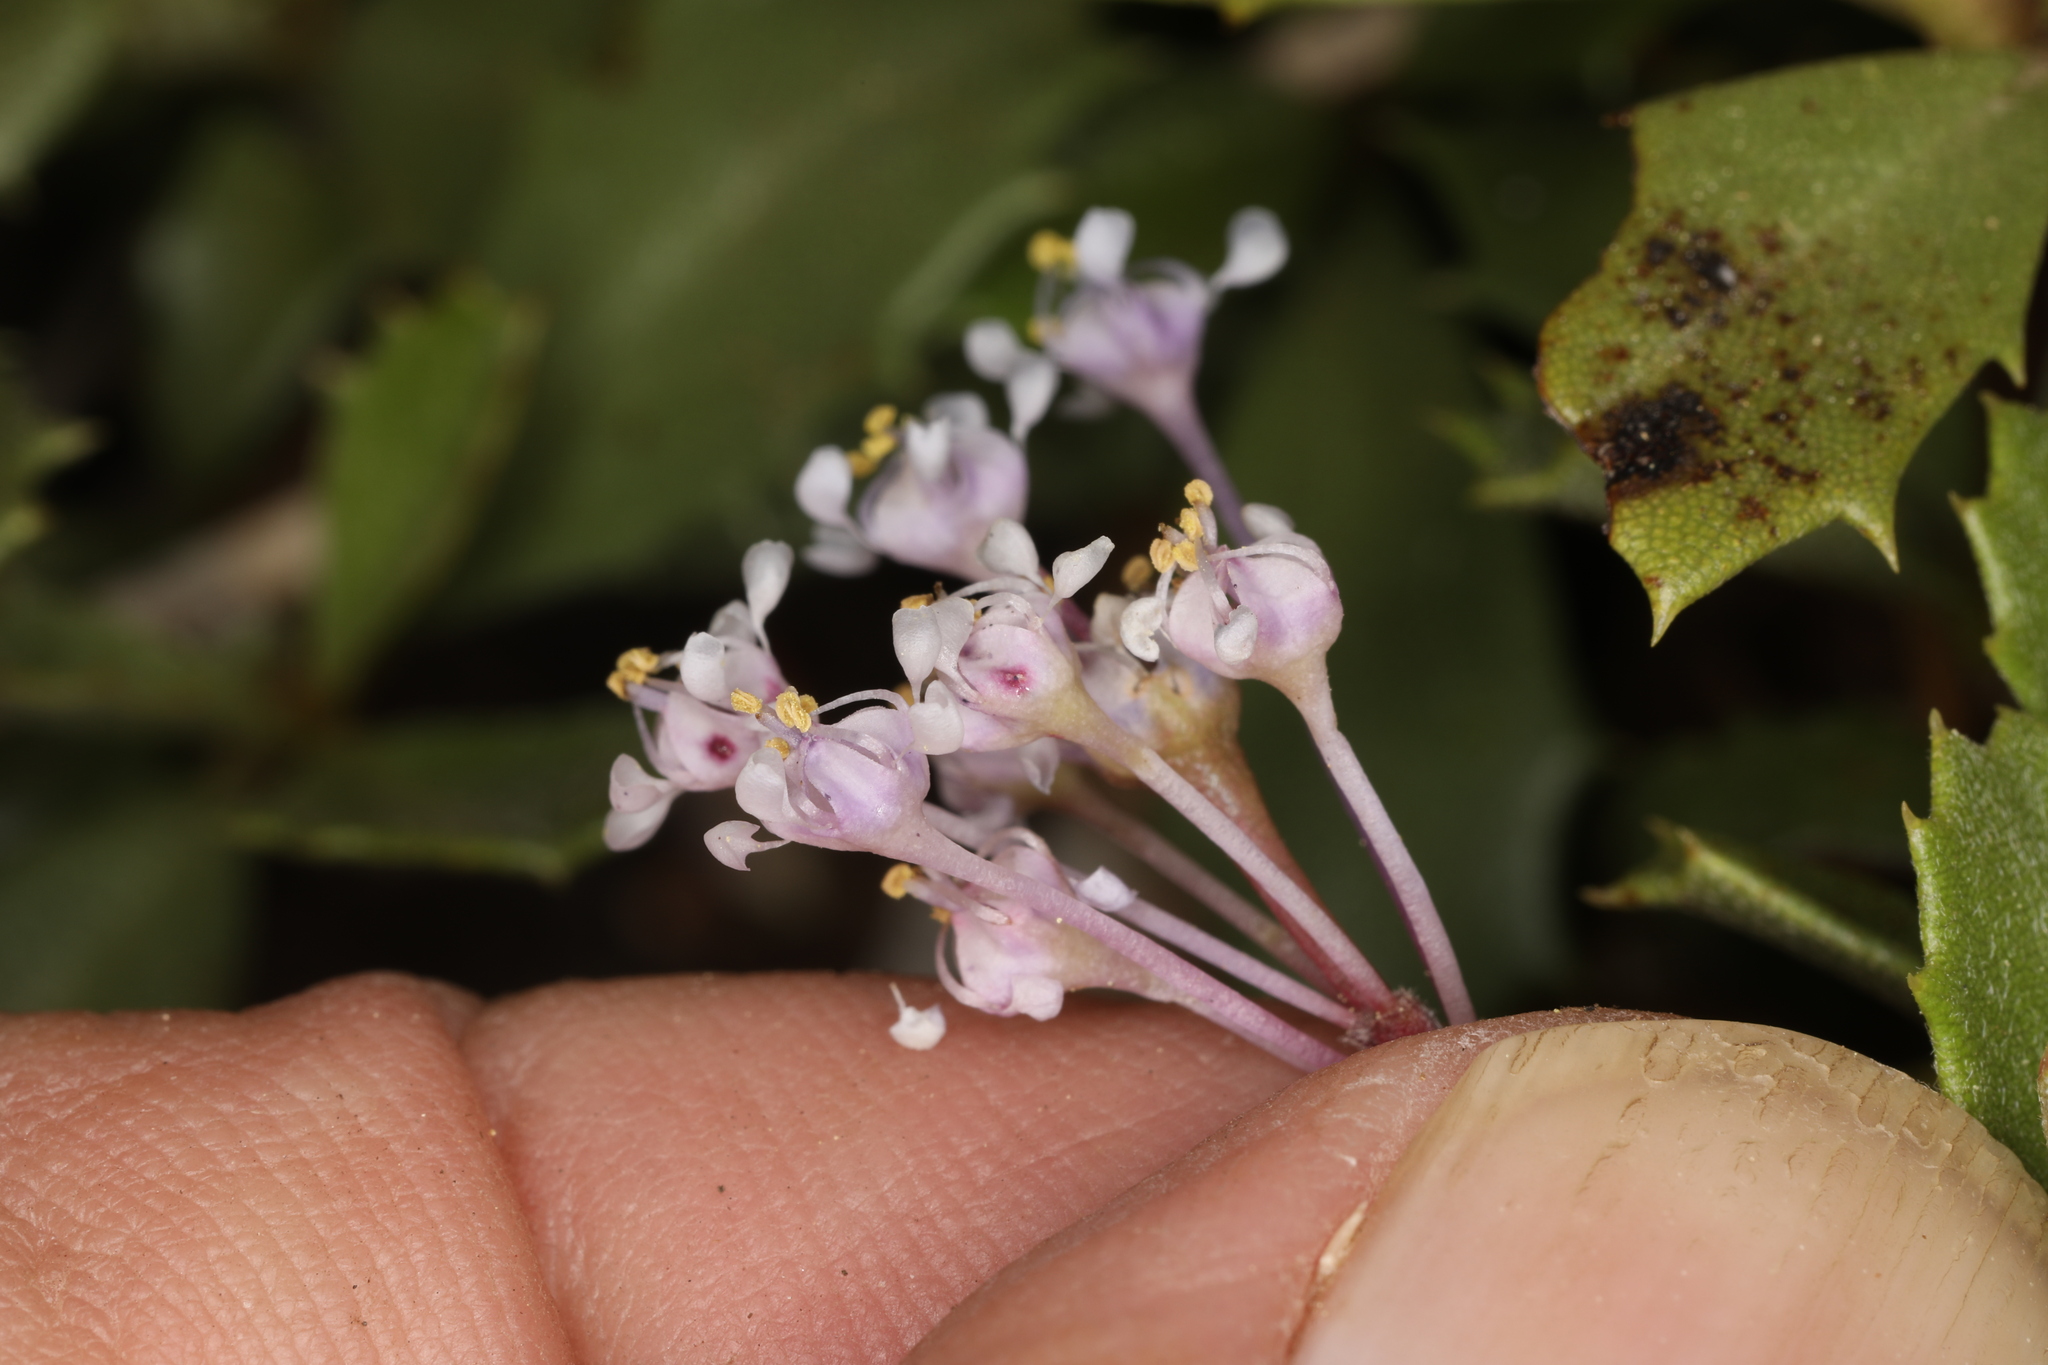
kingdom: Plantae
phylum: Tracheophyta
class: Magnoliopsida
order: Rosales
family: Rhamnaceae
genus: Ceanothus
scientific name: Ceanothus prostratus
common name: Mahala-mat
